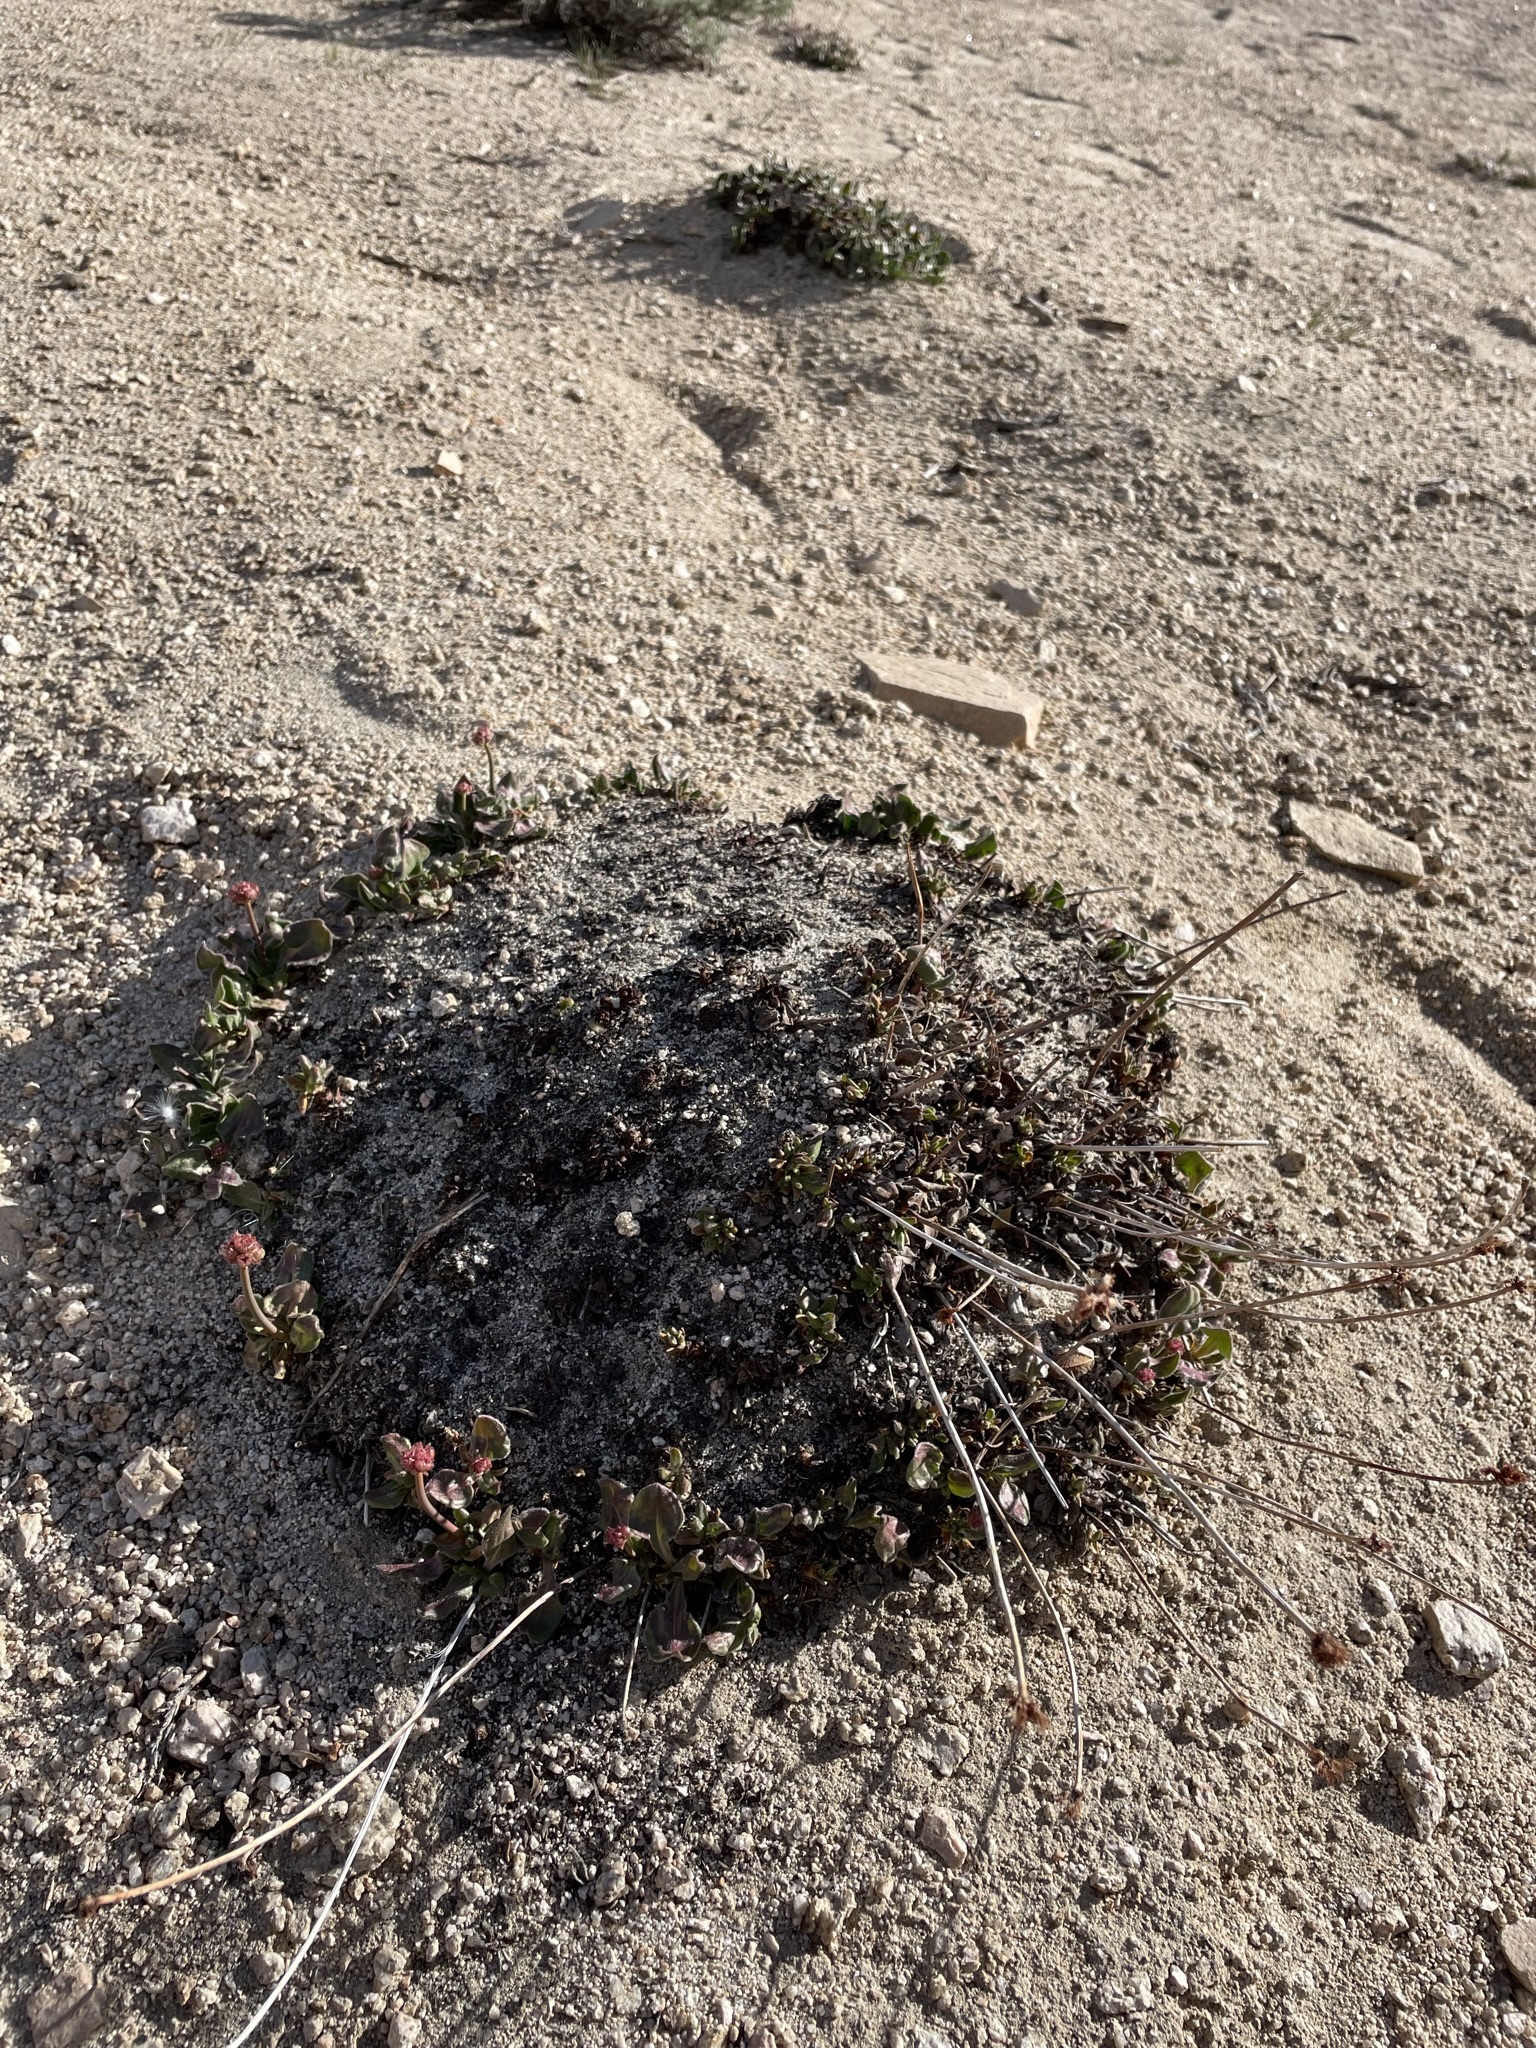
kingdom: Plantae
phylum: Tracheophyta
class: Magnoliopsida
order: Caryophyllales
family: Polygonaceae
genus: Eriogonum
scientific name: Eriogonum latens
